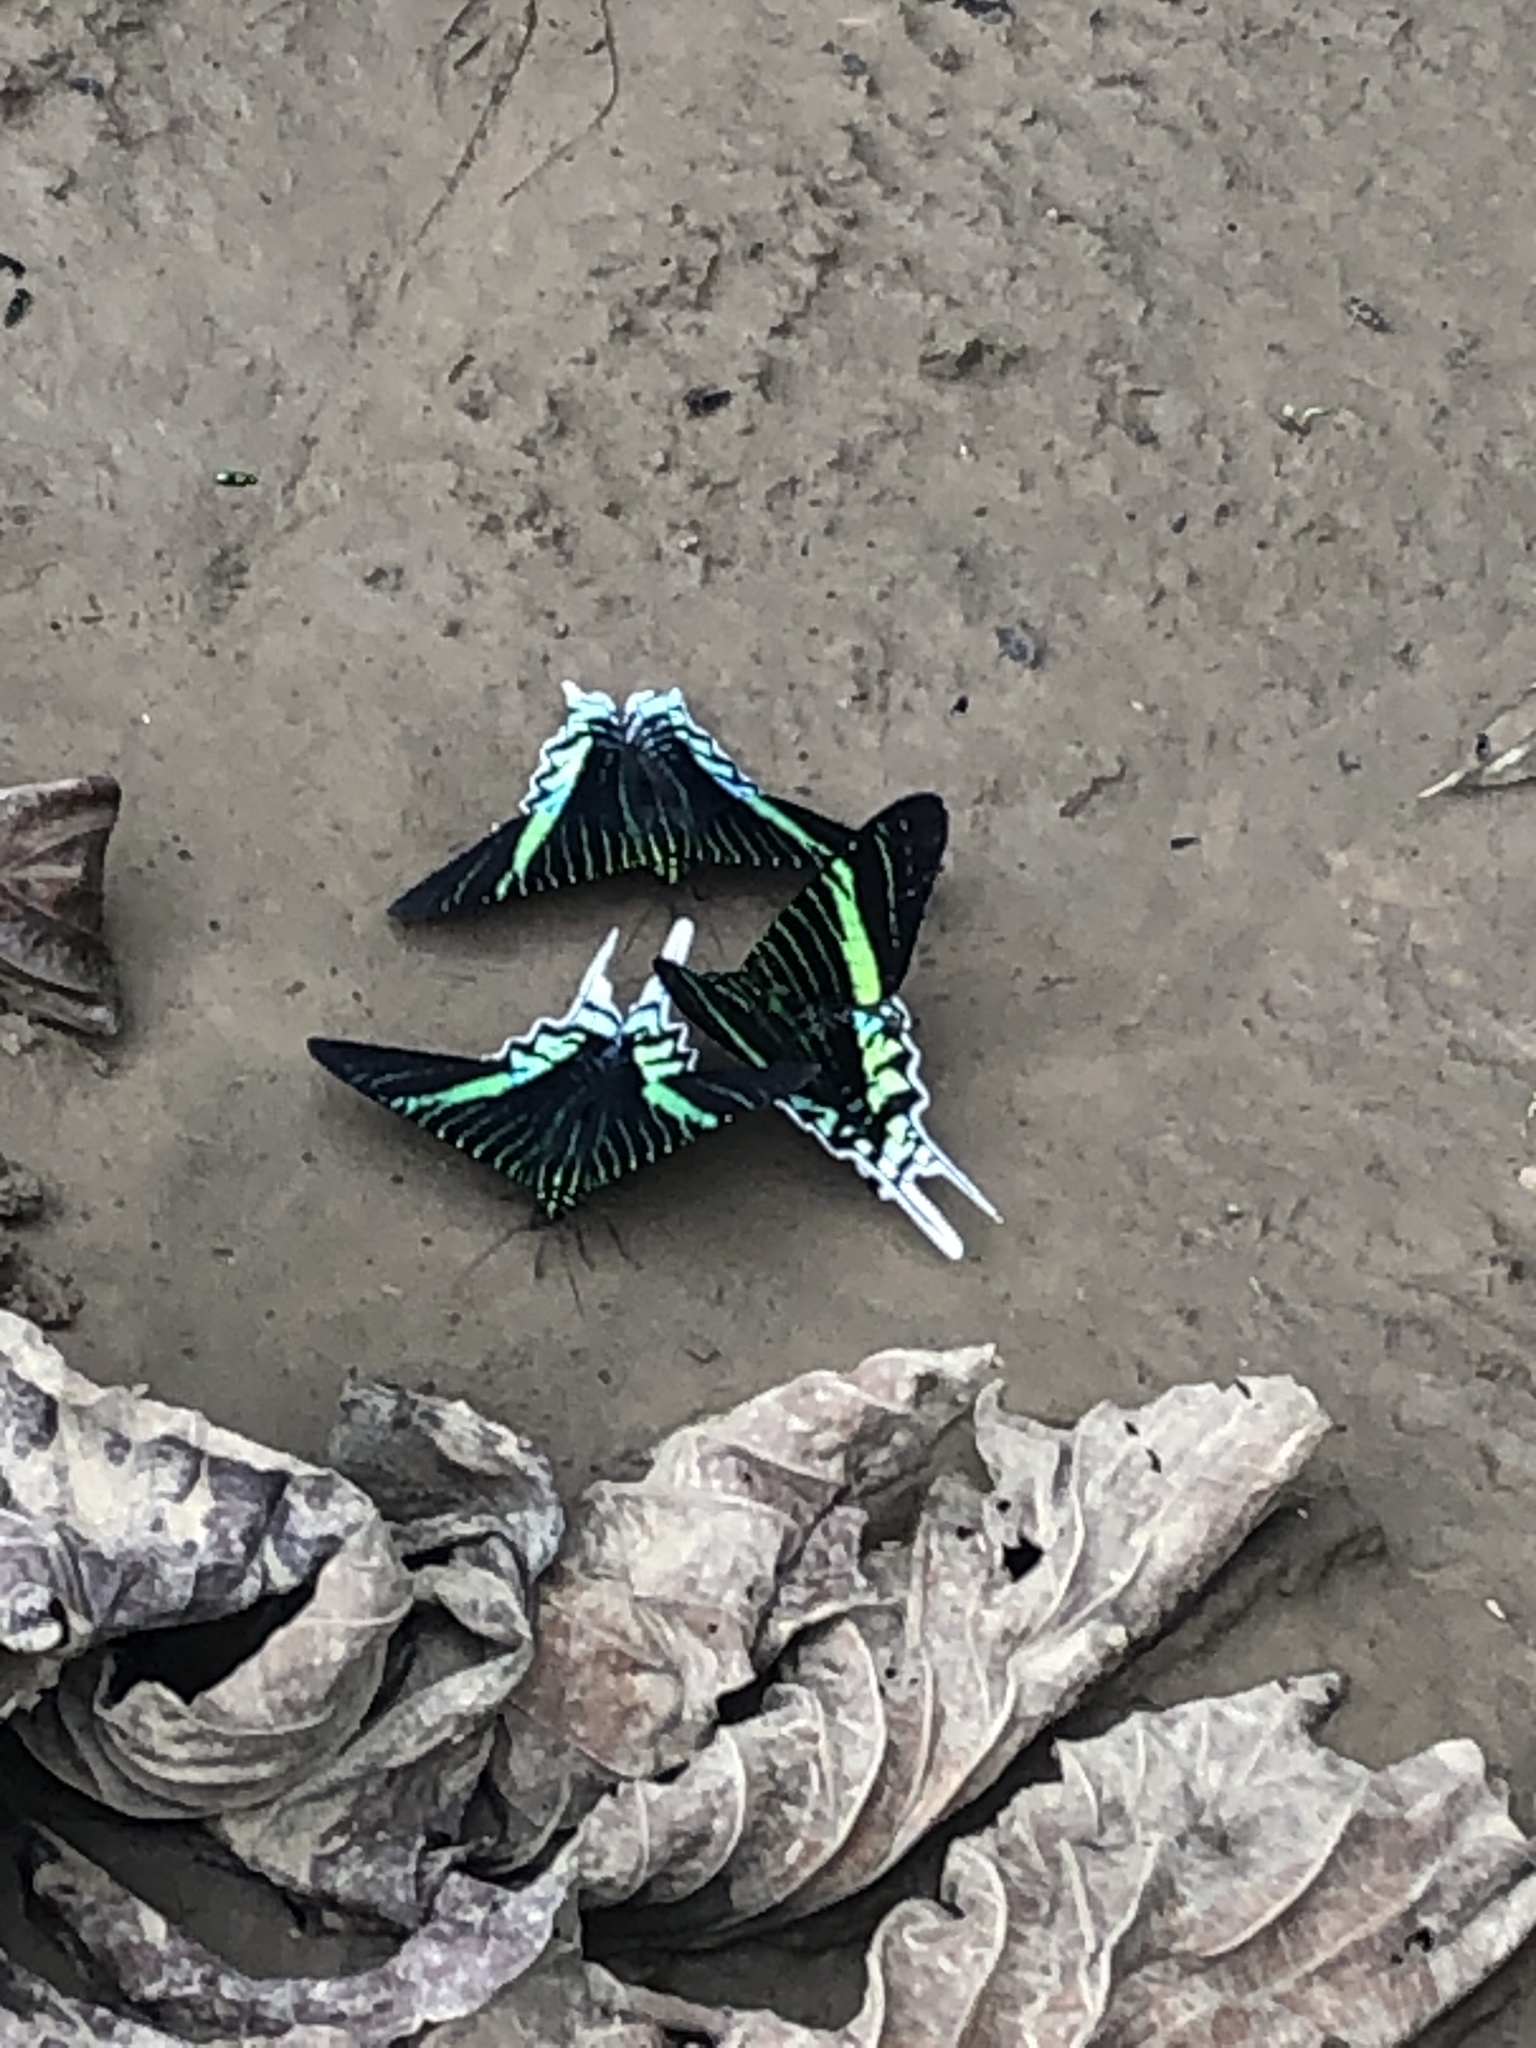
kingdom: Animalia
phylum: Arthropoda
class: Insecta
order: Lepidoptera
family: Uraniidae
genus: Urania
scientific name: Urania leilus
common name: Peacock moth
